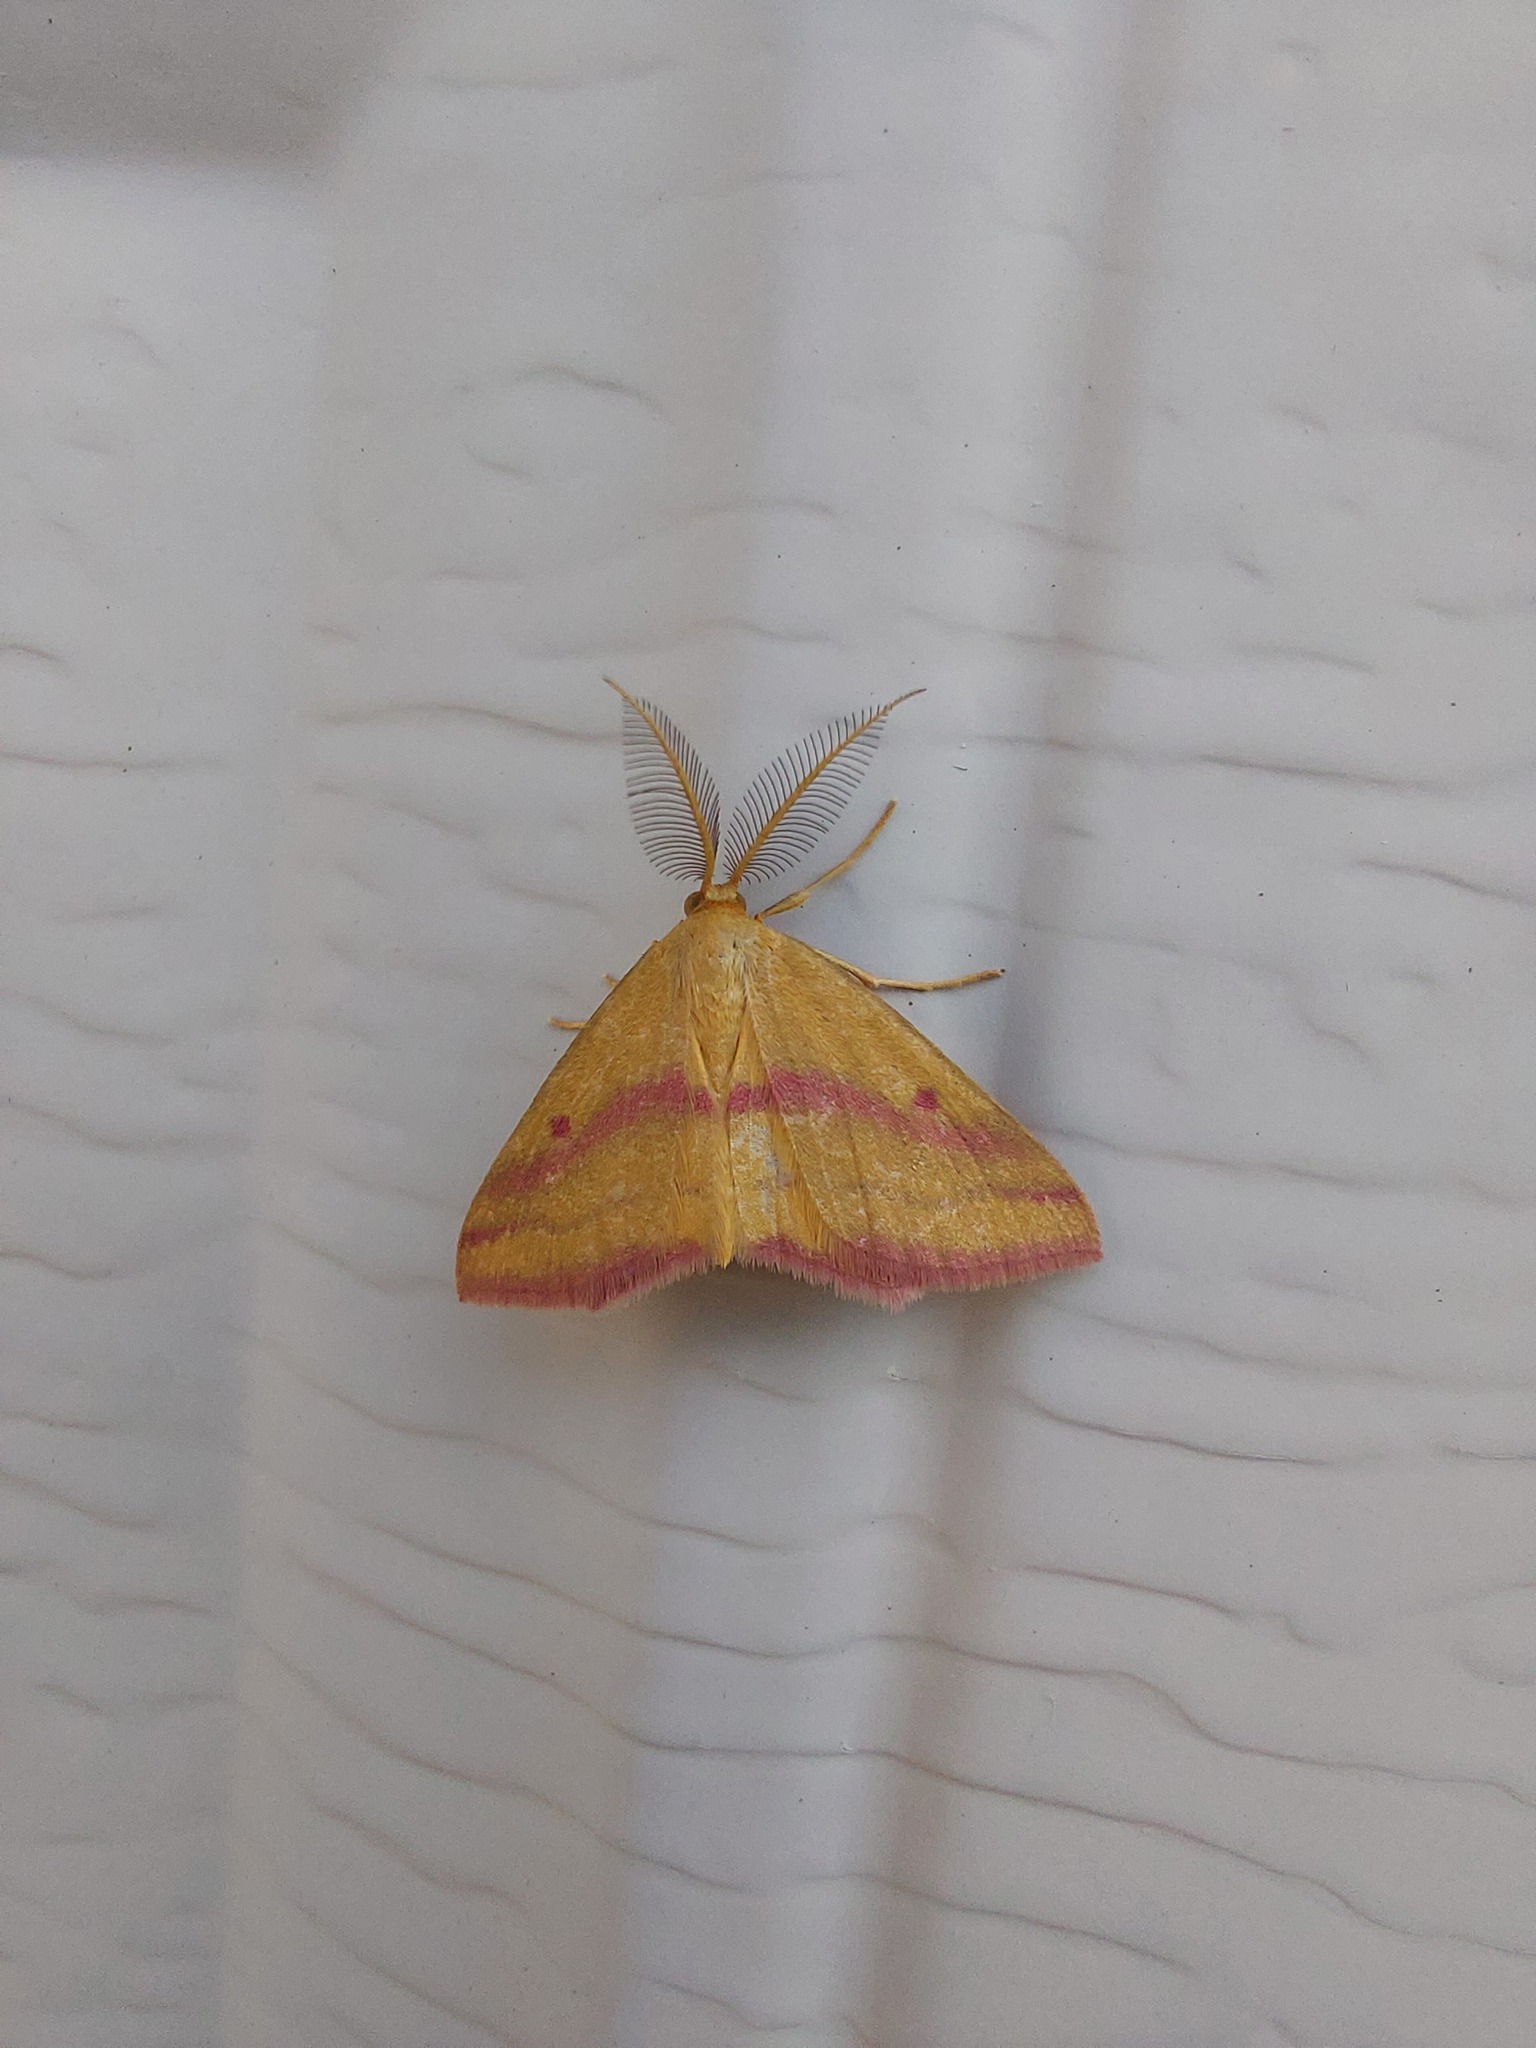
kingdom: Animalia
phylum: Arthropoda
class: Insecta
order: Lepidoptera
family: Geometridae
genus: Haematopis
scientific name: Haematopis grataria
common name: Chickweed geometer
